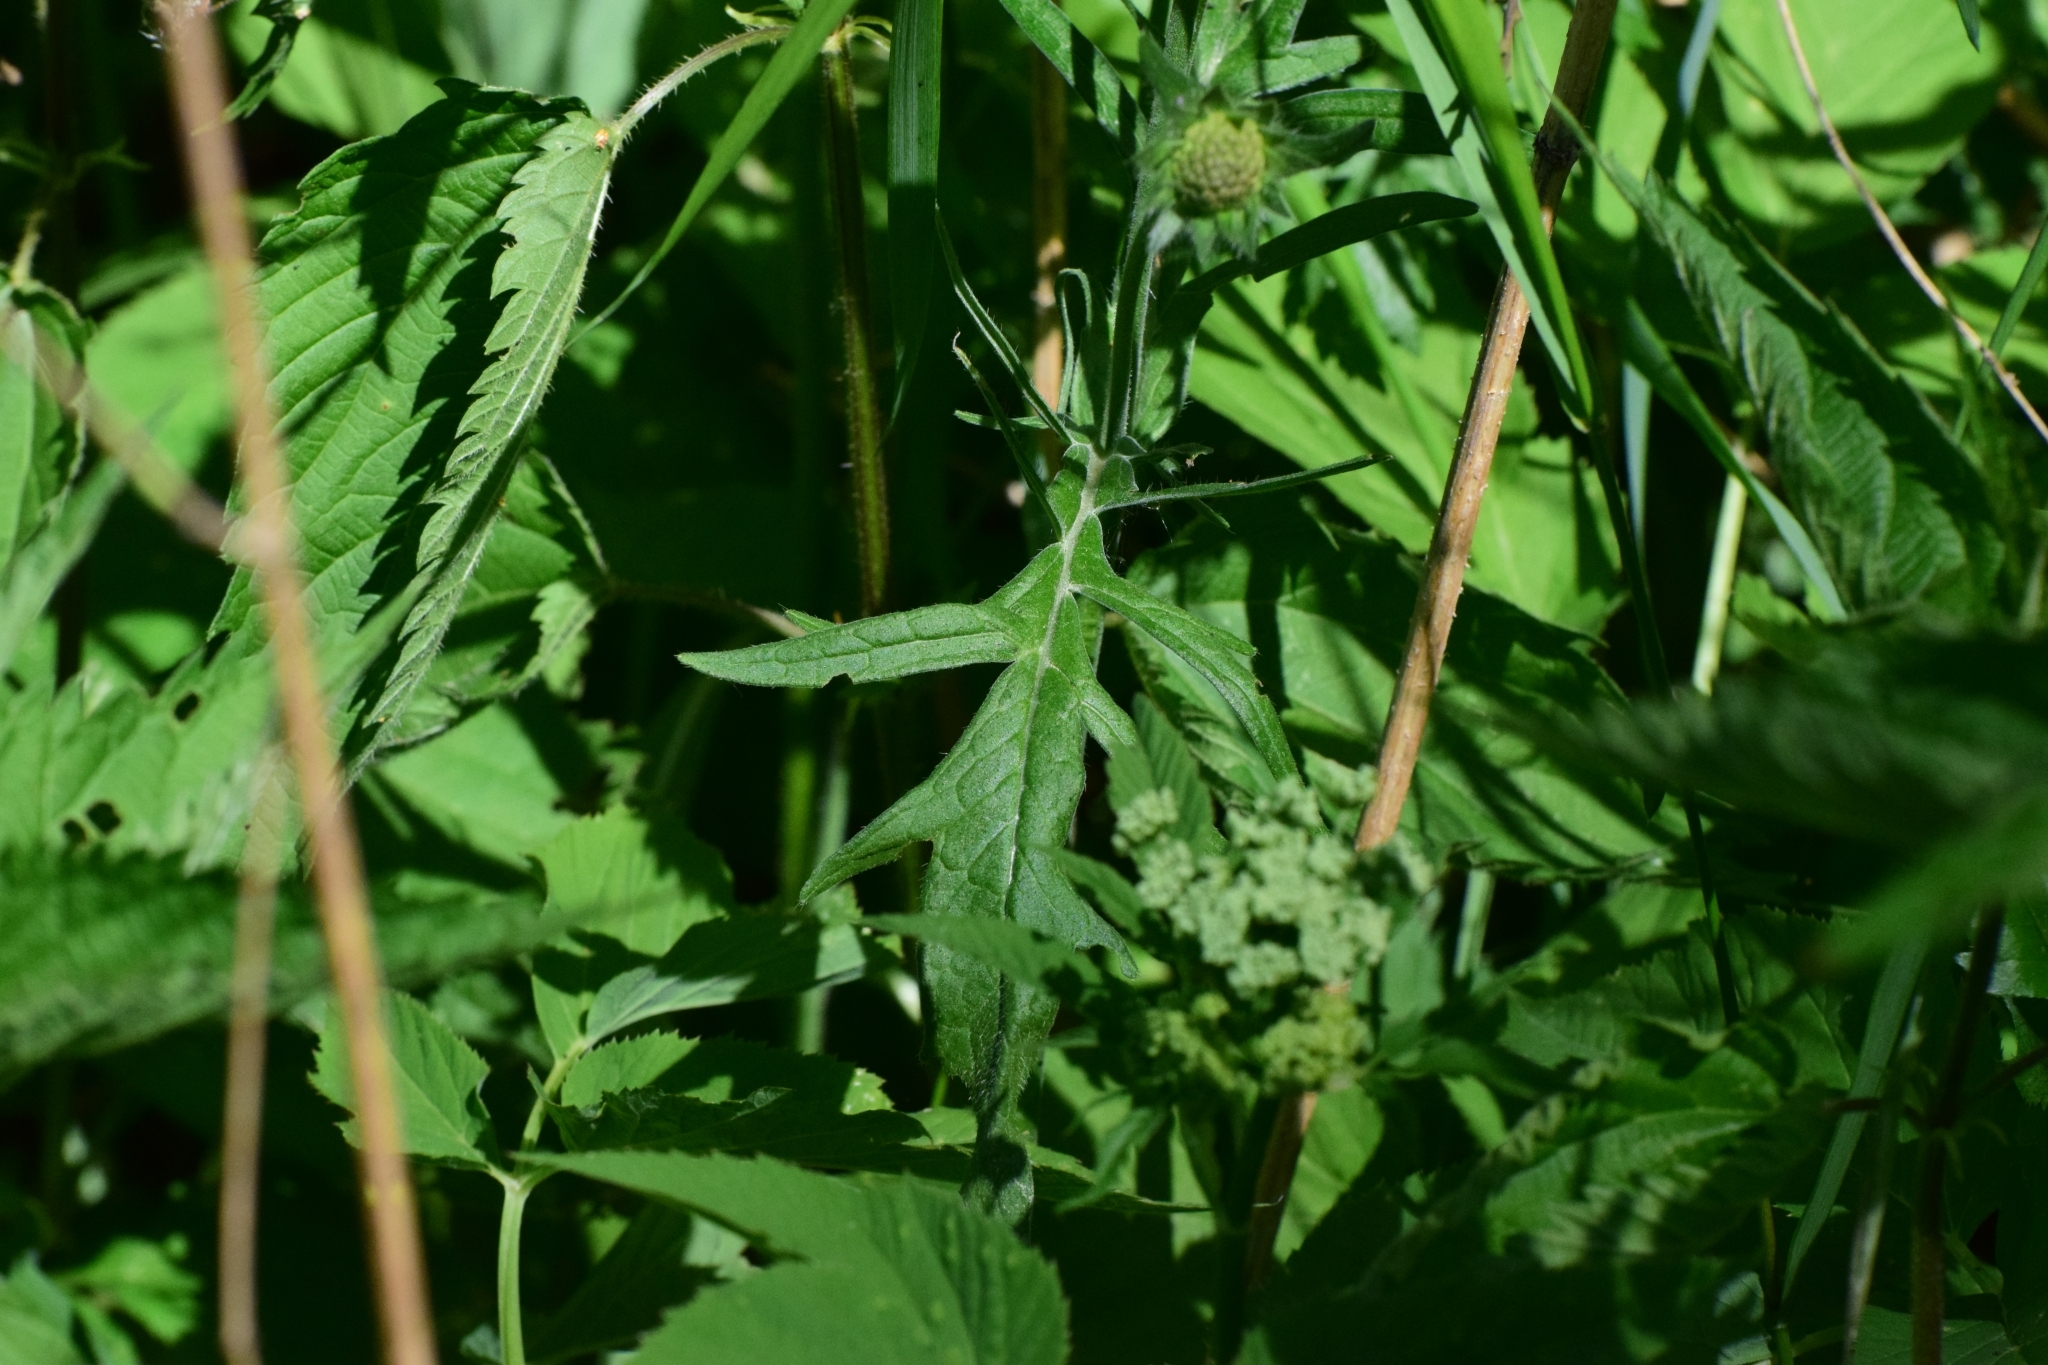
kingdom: Plantae
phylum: Tracheophyta
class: Magnoliopsida
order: Dipsacales
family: Caprifoliaceae
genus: Knautia
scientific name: Knautia arvensis
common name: Field scabiosa
